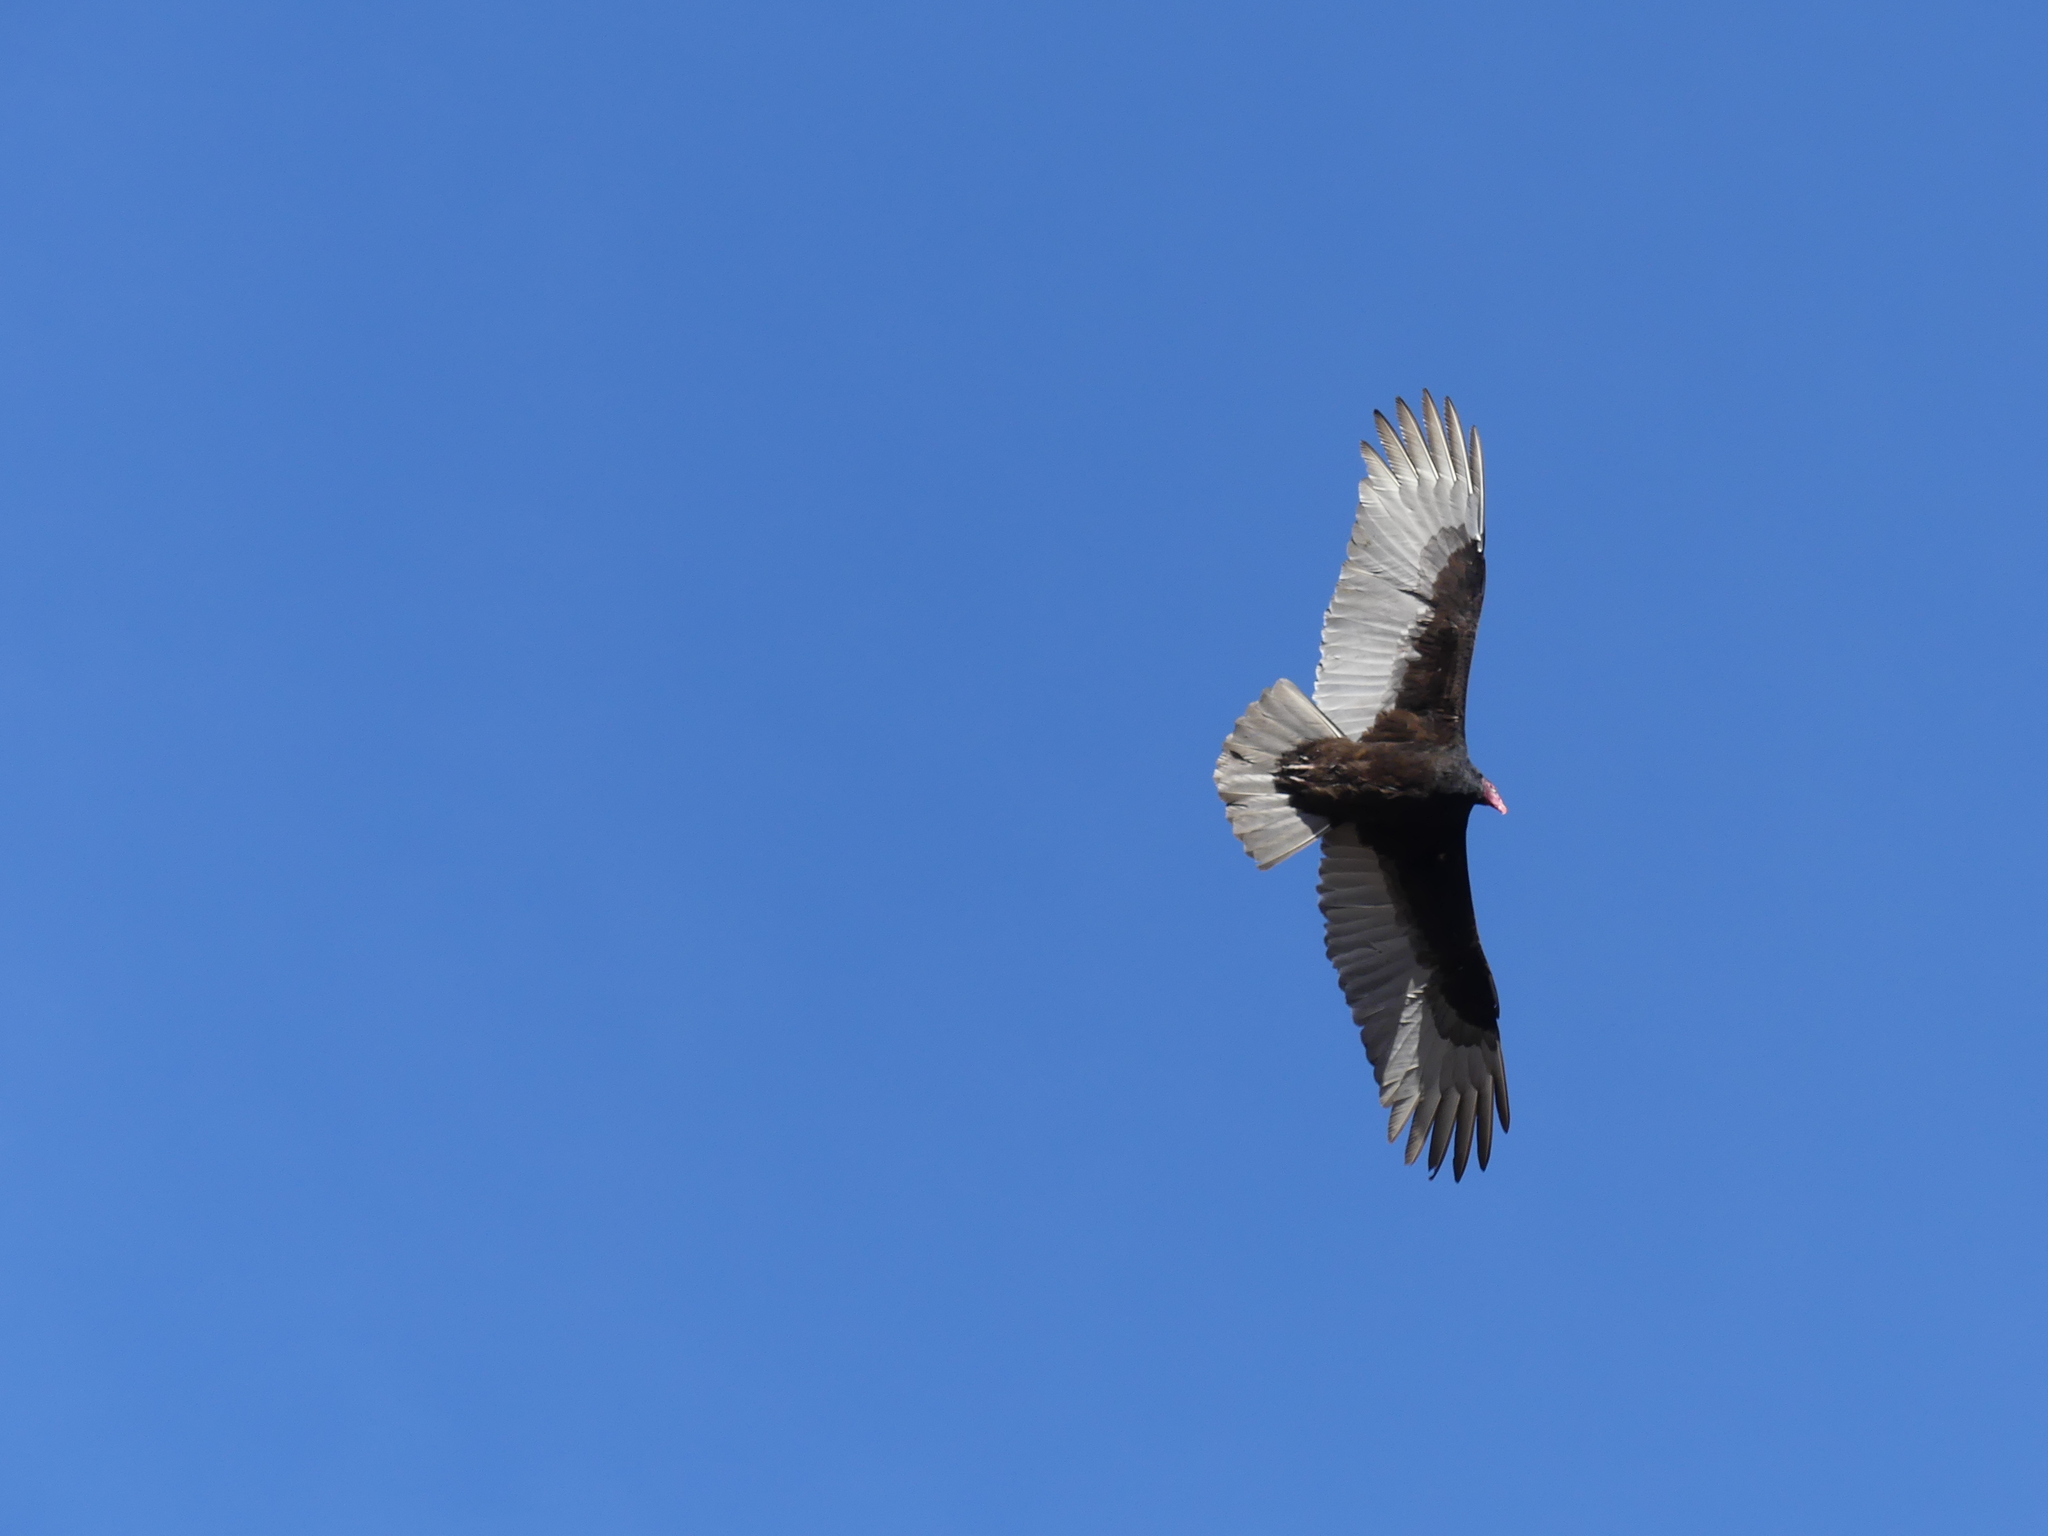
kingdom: Animalia
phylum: Chordata
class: Aves
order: Accipitriformes
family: Cathartidae
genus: Cathartes
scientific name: Cathartes aura
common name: Turkey vulture
